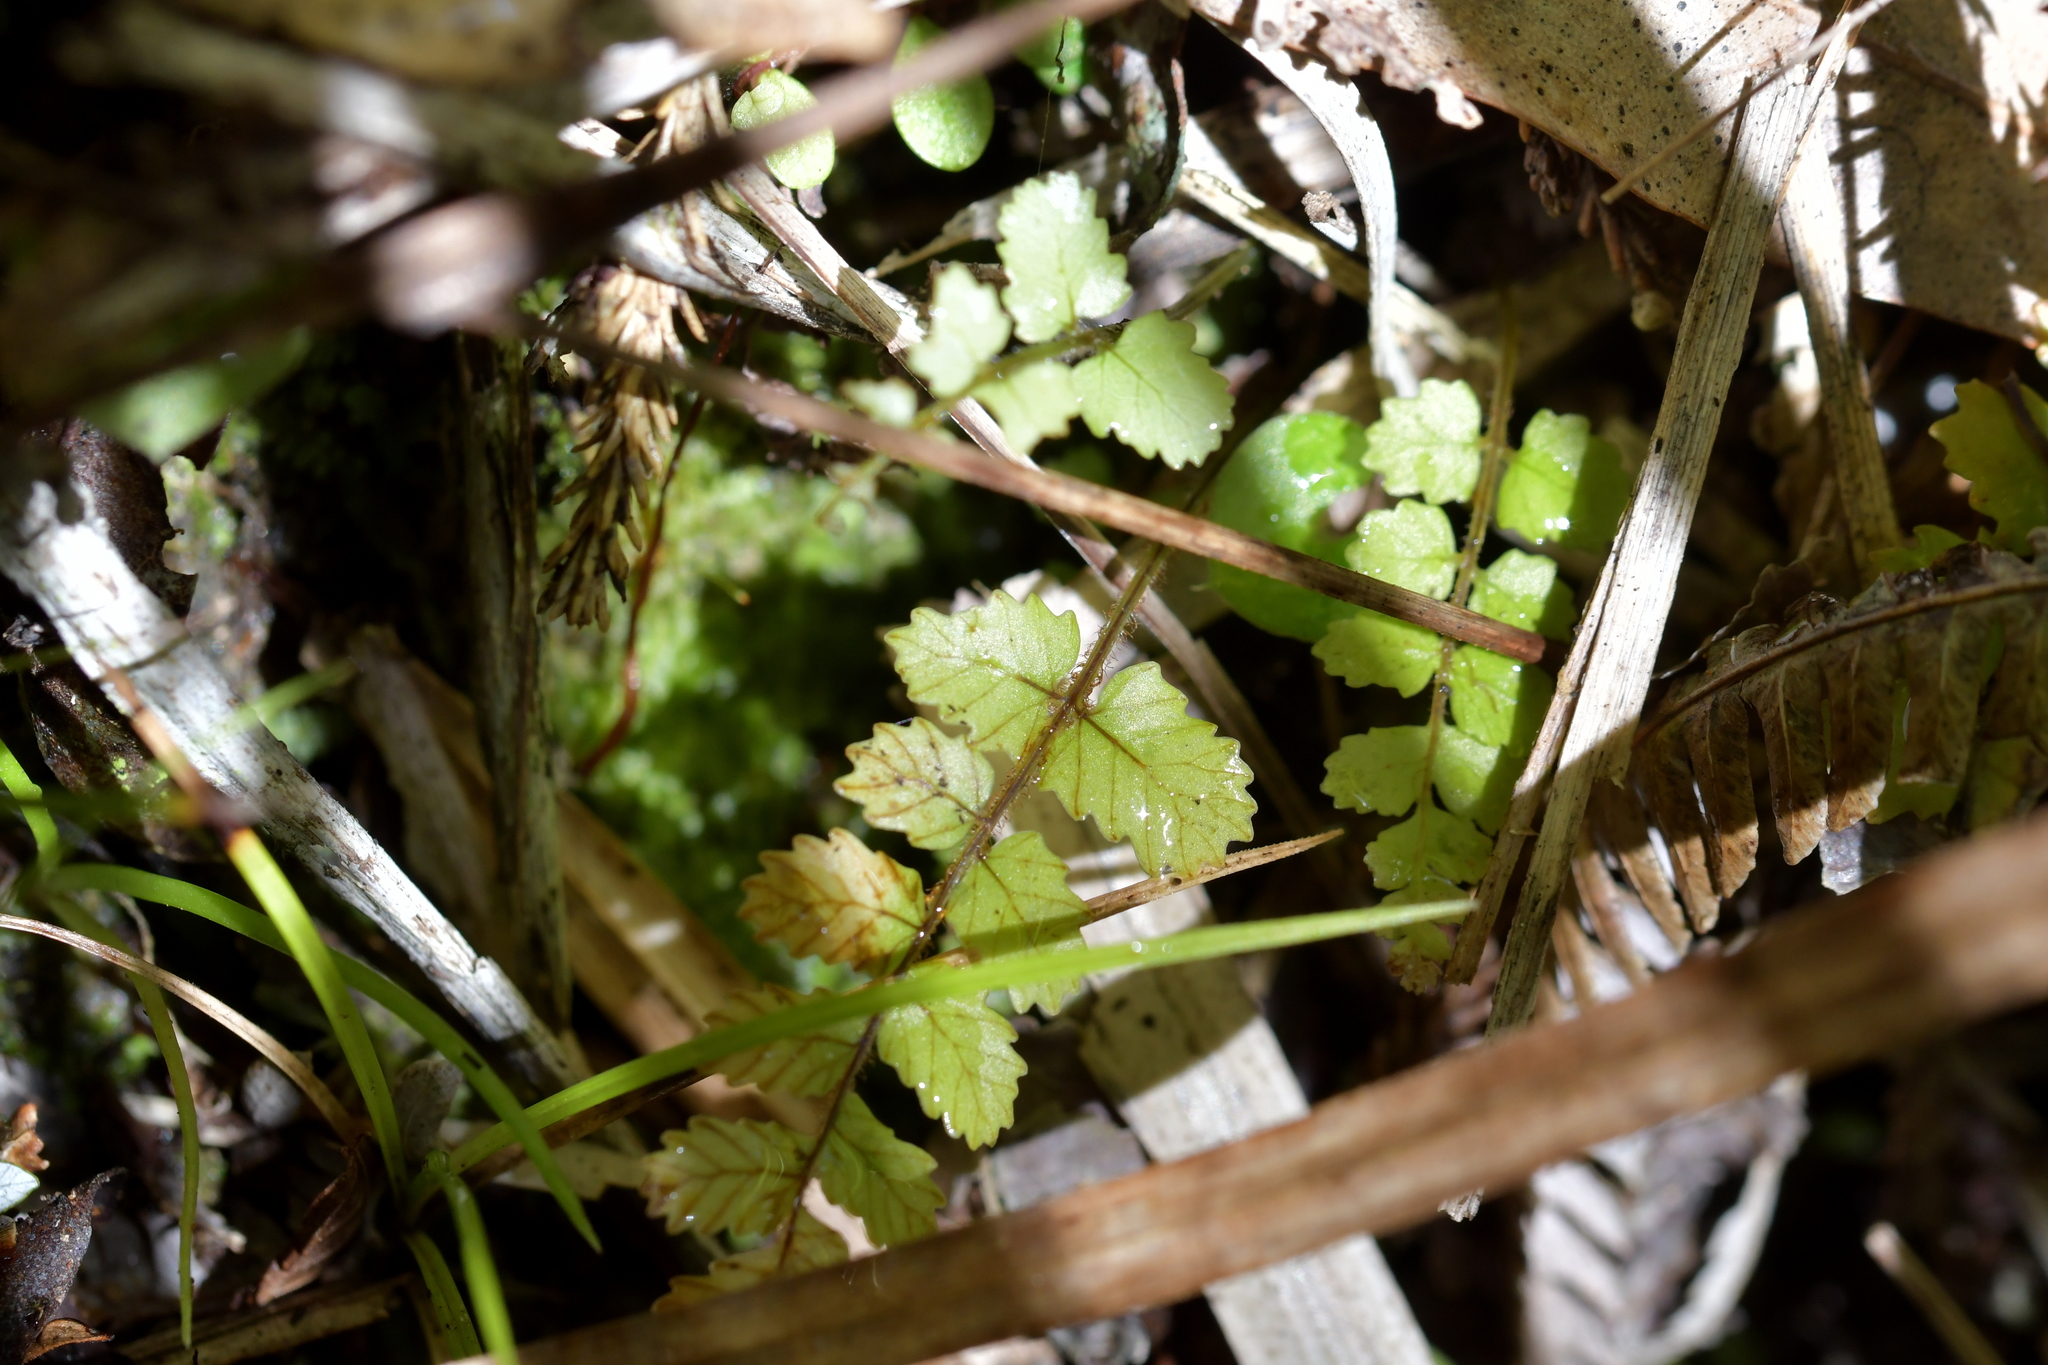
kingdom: Plantae
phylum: Tracheophyta
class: Polypodiopsida
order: Polypodiales
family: Blechnaceae
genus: Icarus
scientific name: Icarus filiformis
